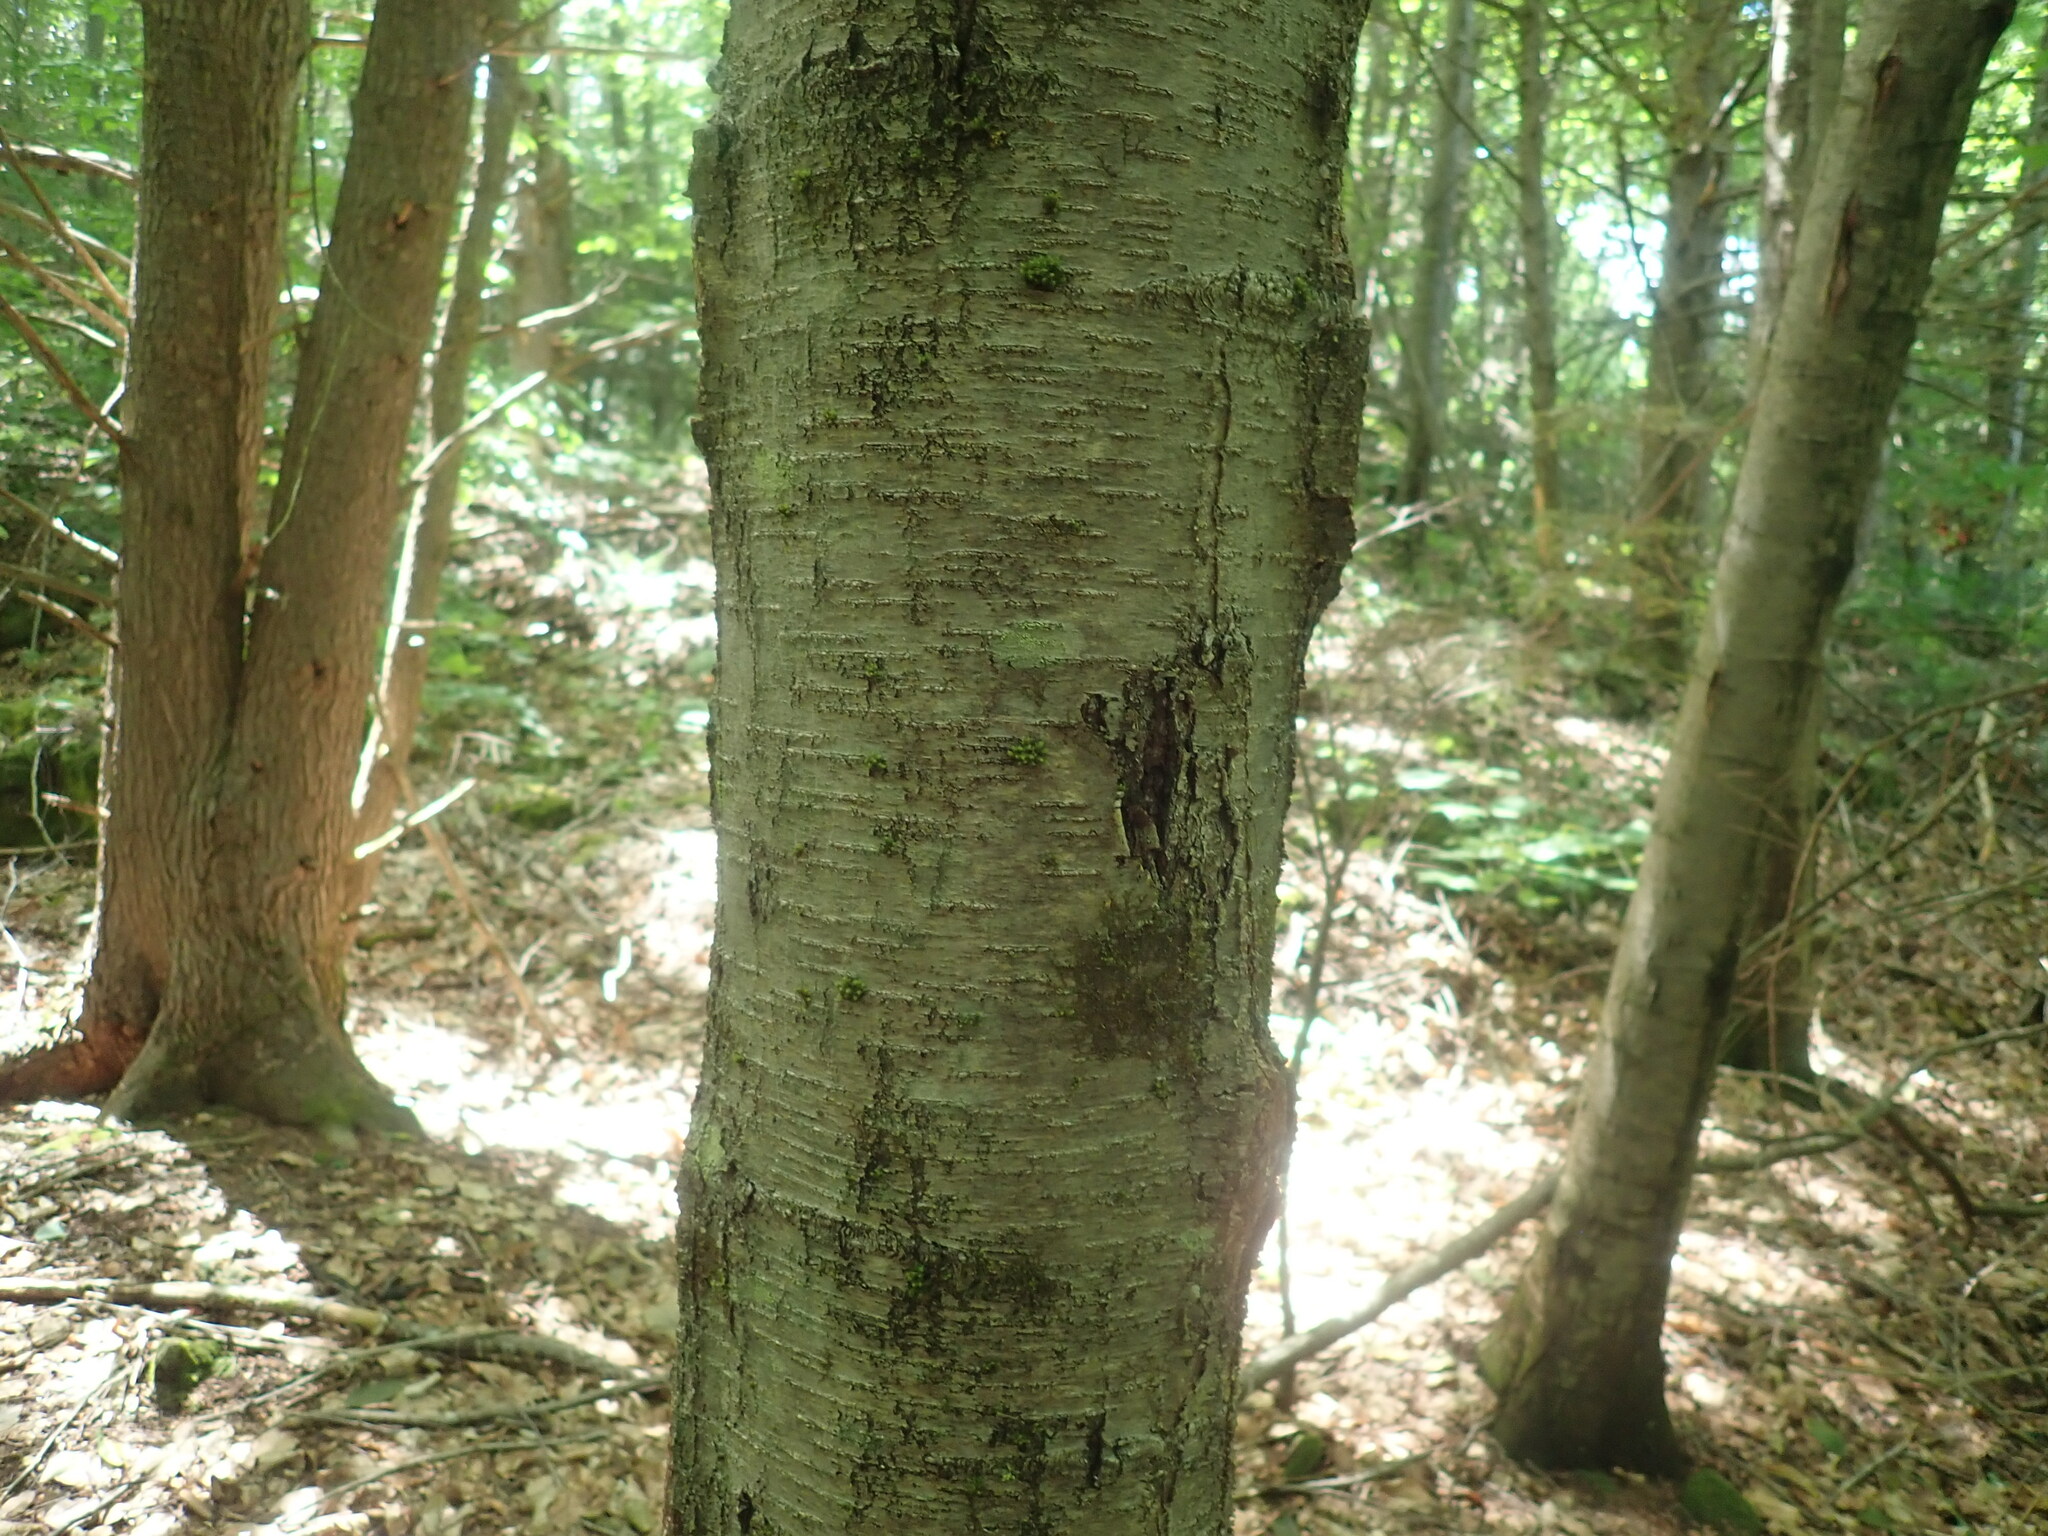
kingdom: Plantae
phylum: Tracheophyta
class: Magnoliopsida
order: Fagales
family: Betulaceae
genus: Betula
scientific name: Betula lenta
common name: Black birch
